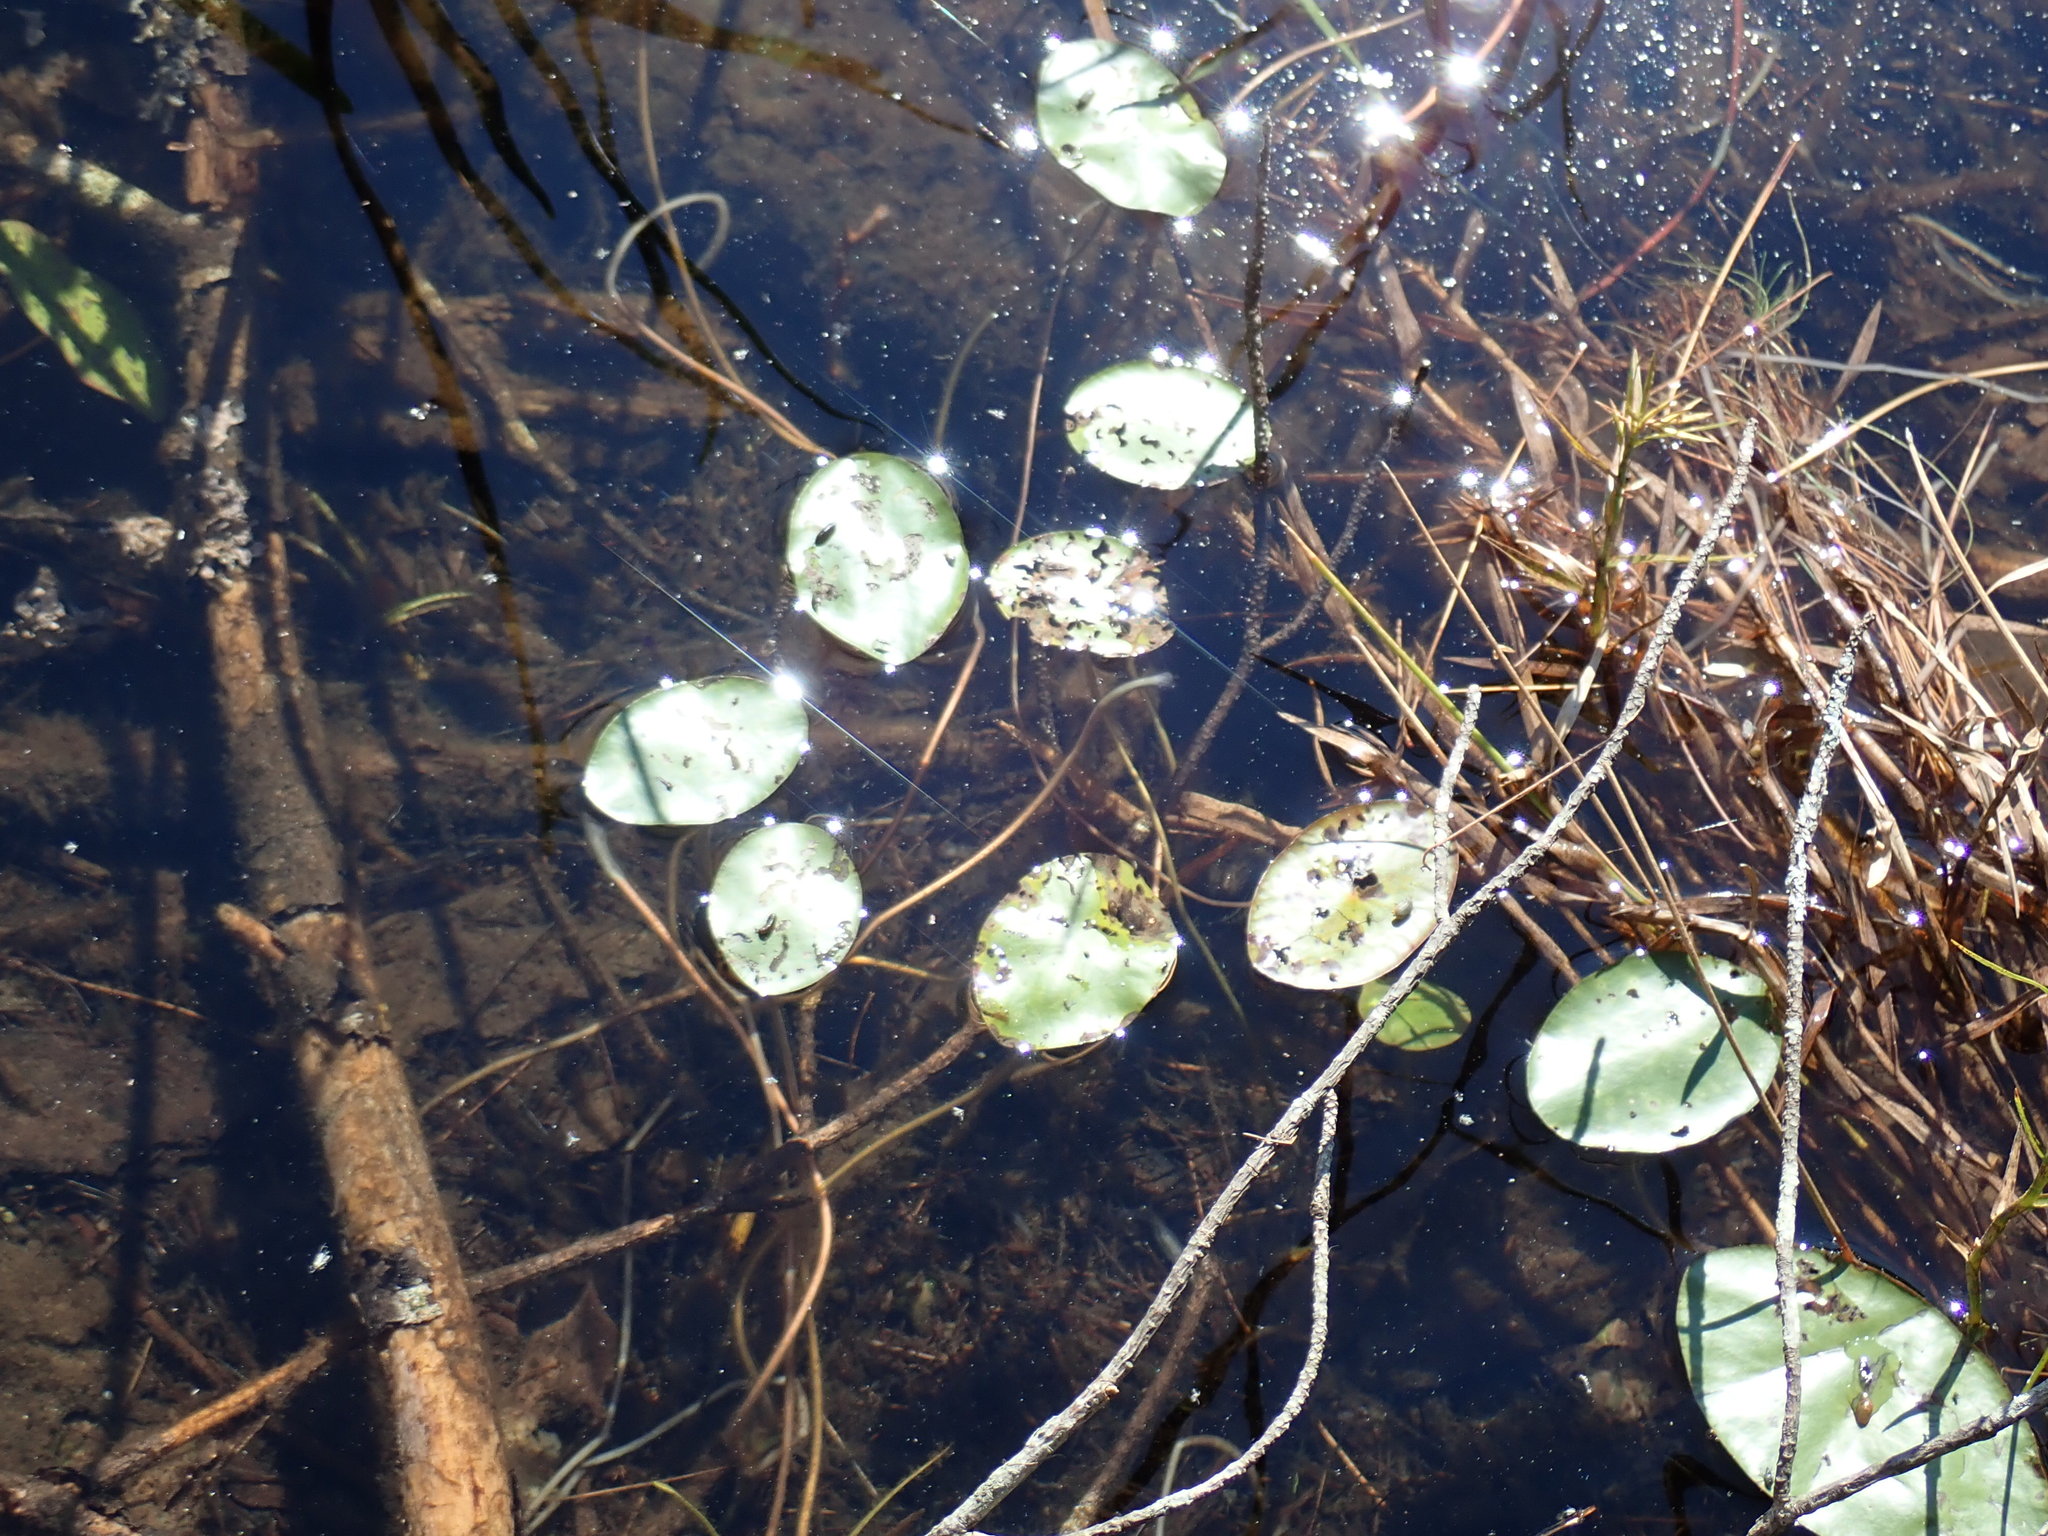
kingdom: Plantae
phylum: Tracheophyta
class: Magnoliopsida
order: Nymphaeales
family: Cabombaceae
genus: Brasenia
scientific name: Brasenia schreberi
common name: Water-shield
